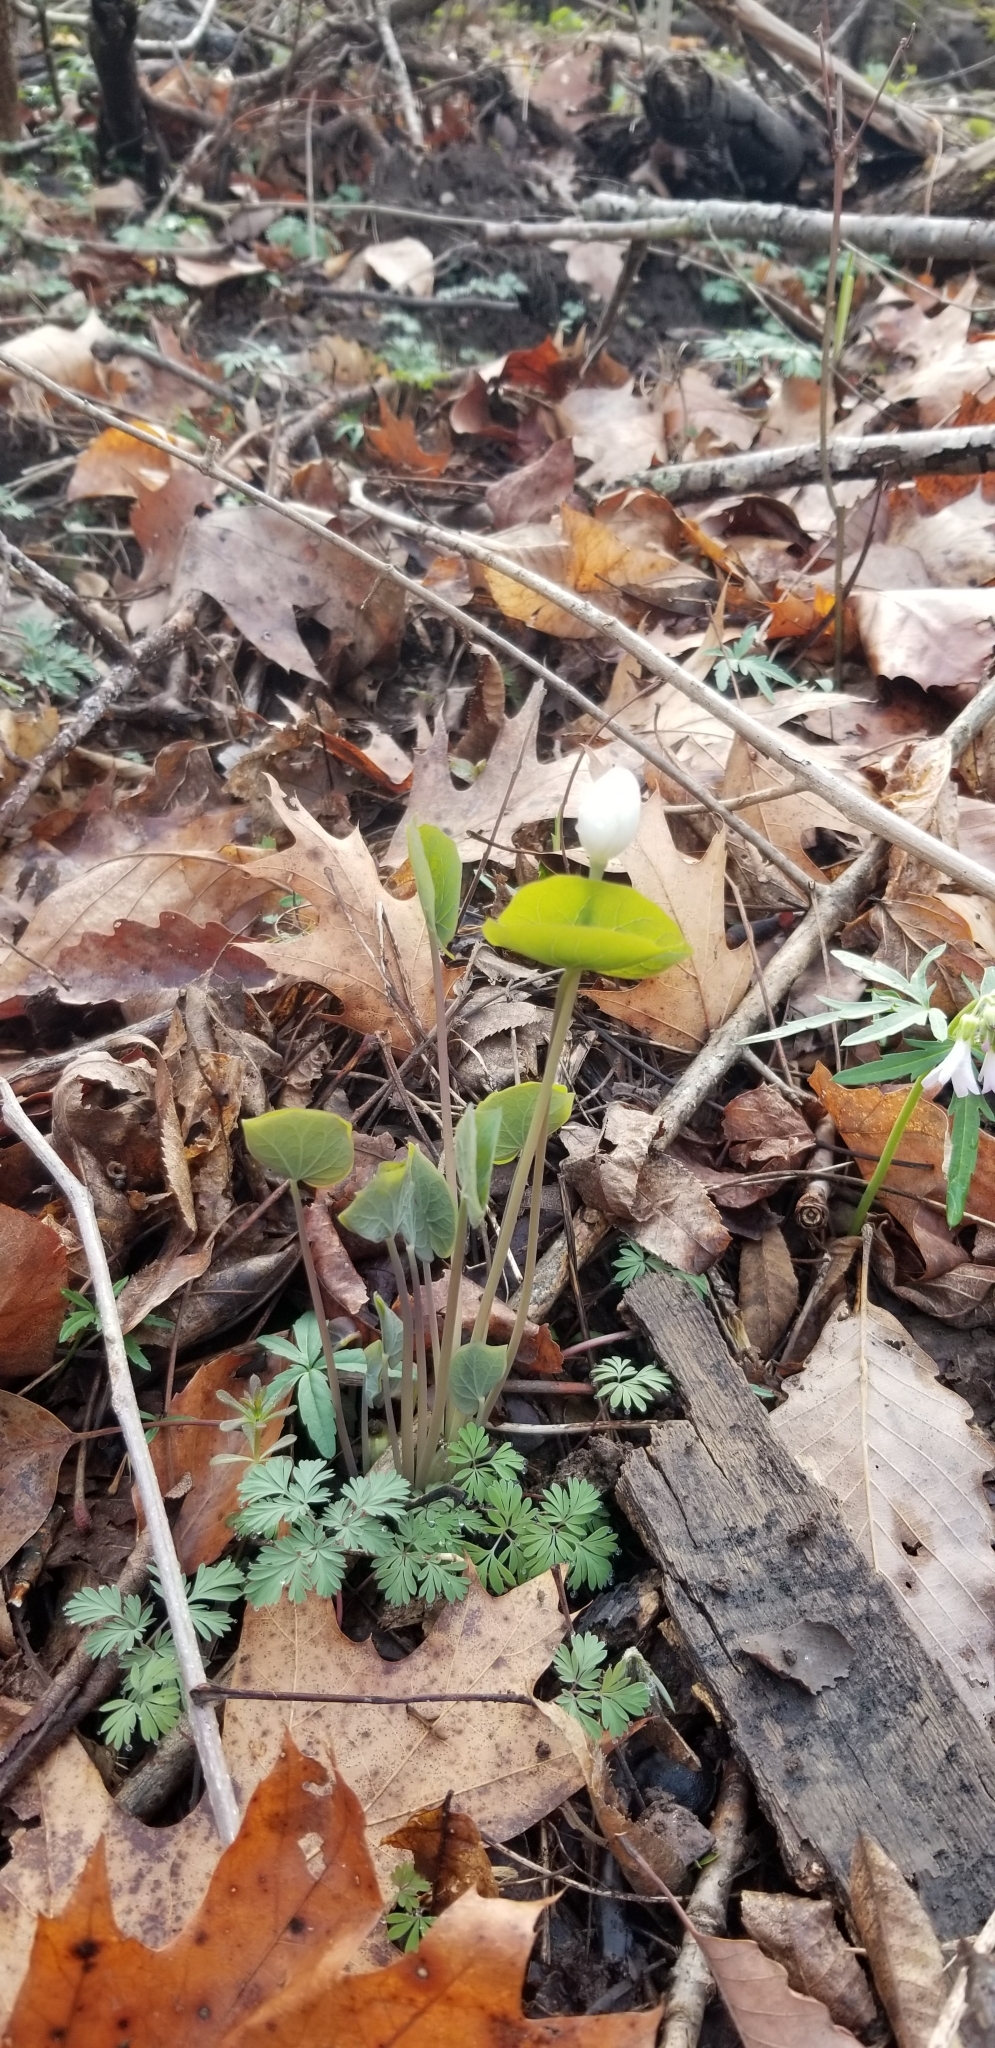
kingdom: Plantae
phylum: Tracheophyta
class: Magnoliopsida
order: Ranunculales
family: Berberidaceae
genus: Jeffersonia
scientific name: Jeffersonia diphylla
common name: Rheumatism-root
